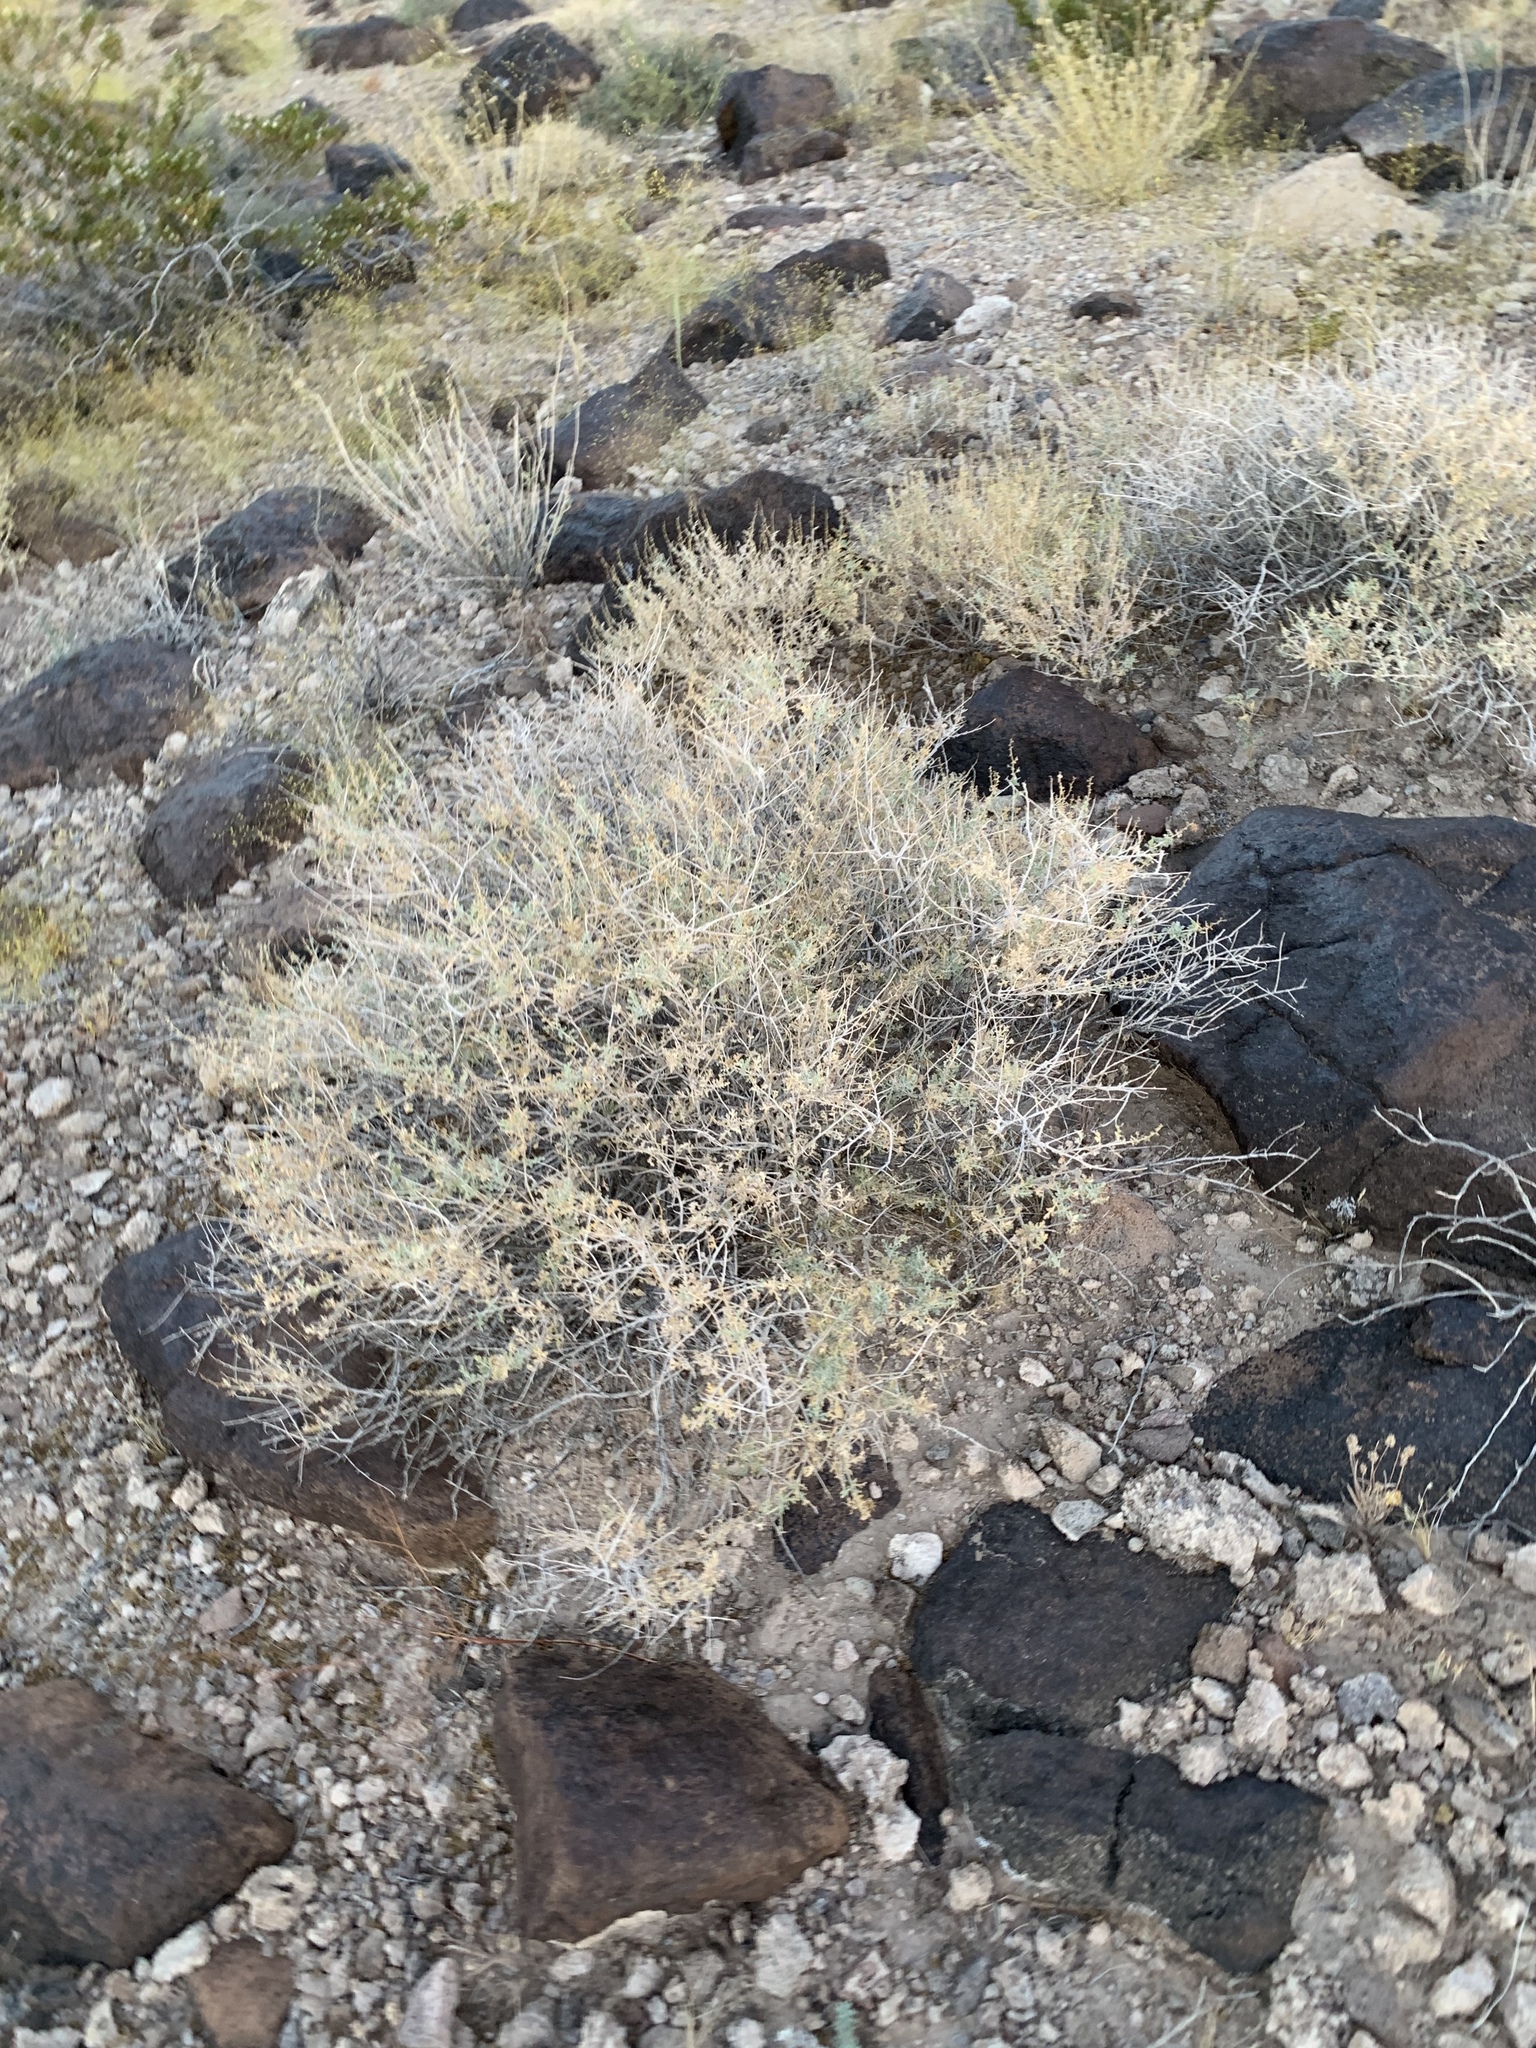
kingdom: Plantae
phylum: Tracheophyta
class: Magnoliopsida
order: Asterales
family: Asteraceae
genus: Ambrosia
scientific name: Ambrosia dumosa
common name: Bur-sage
